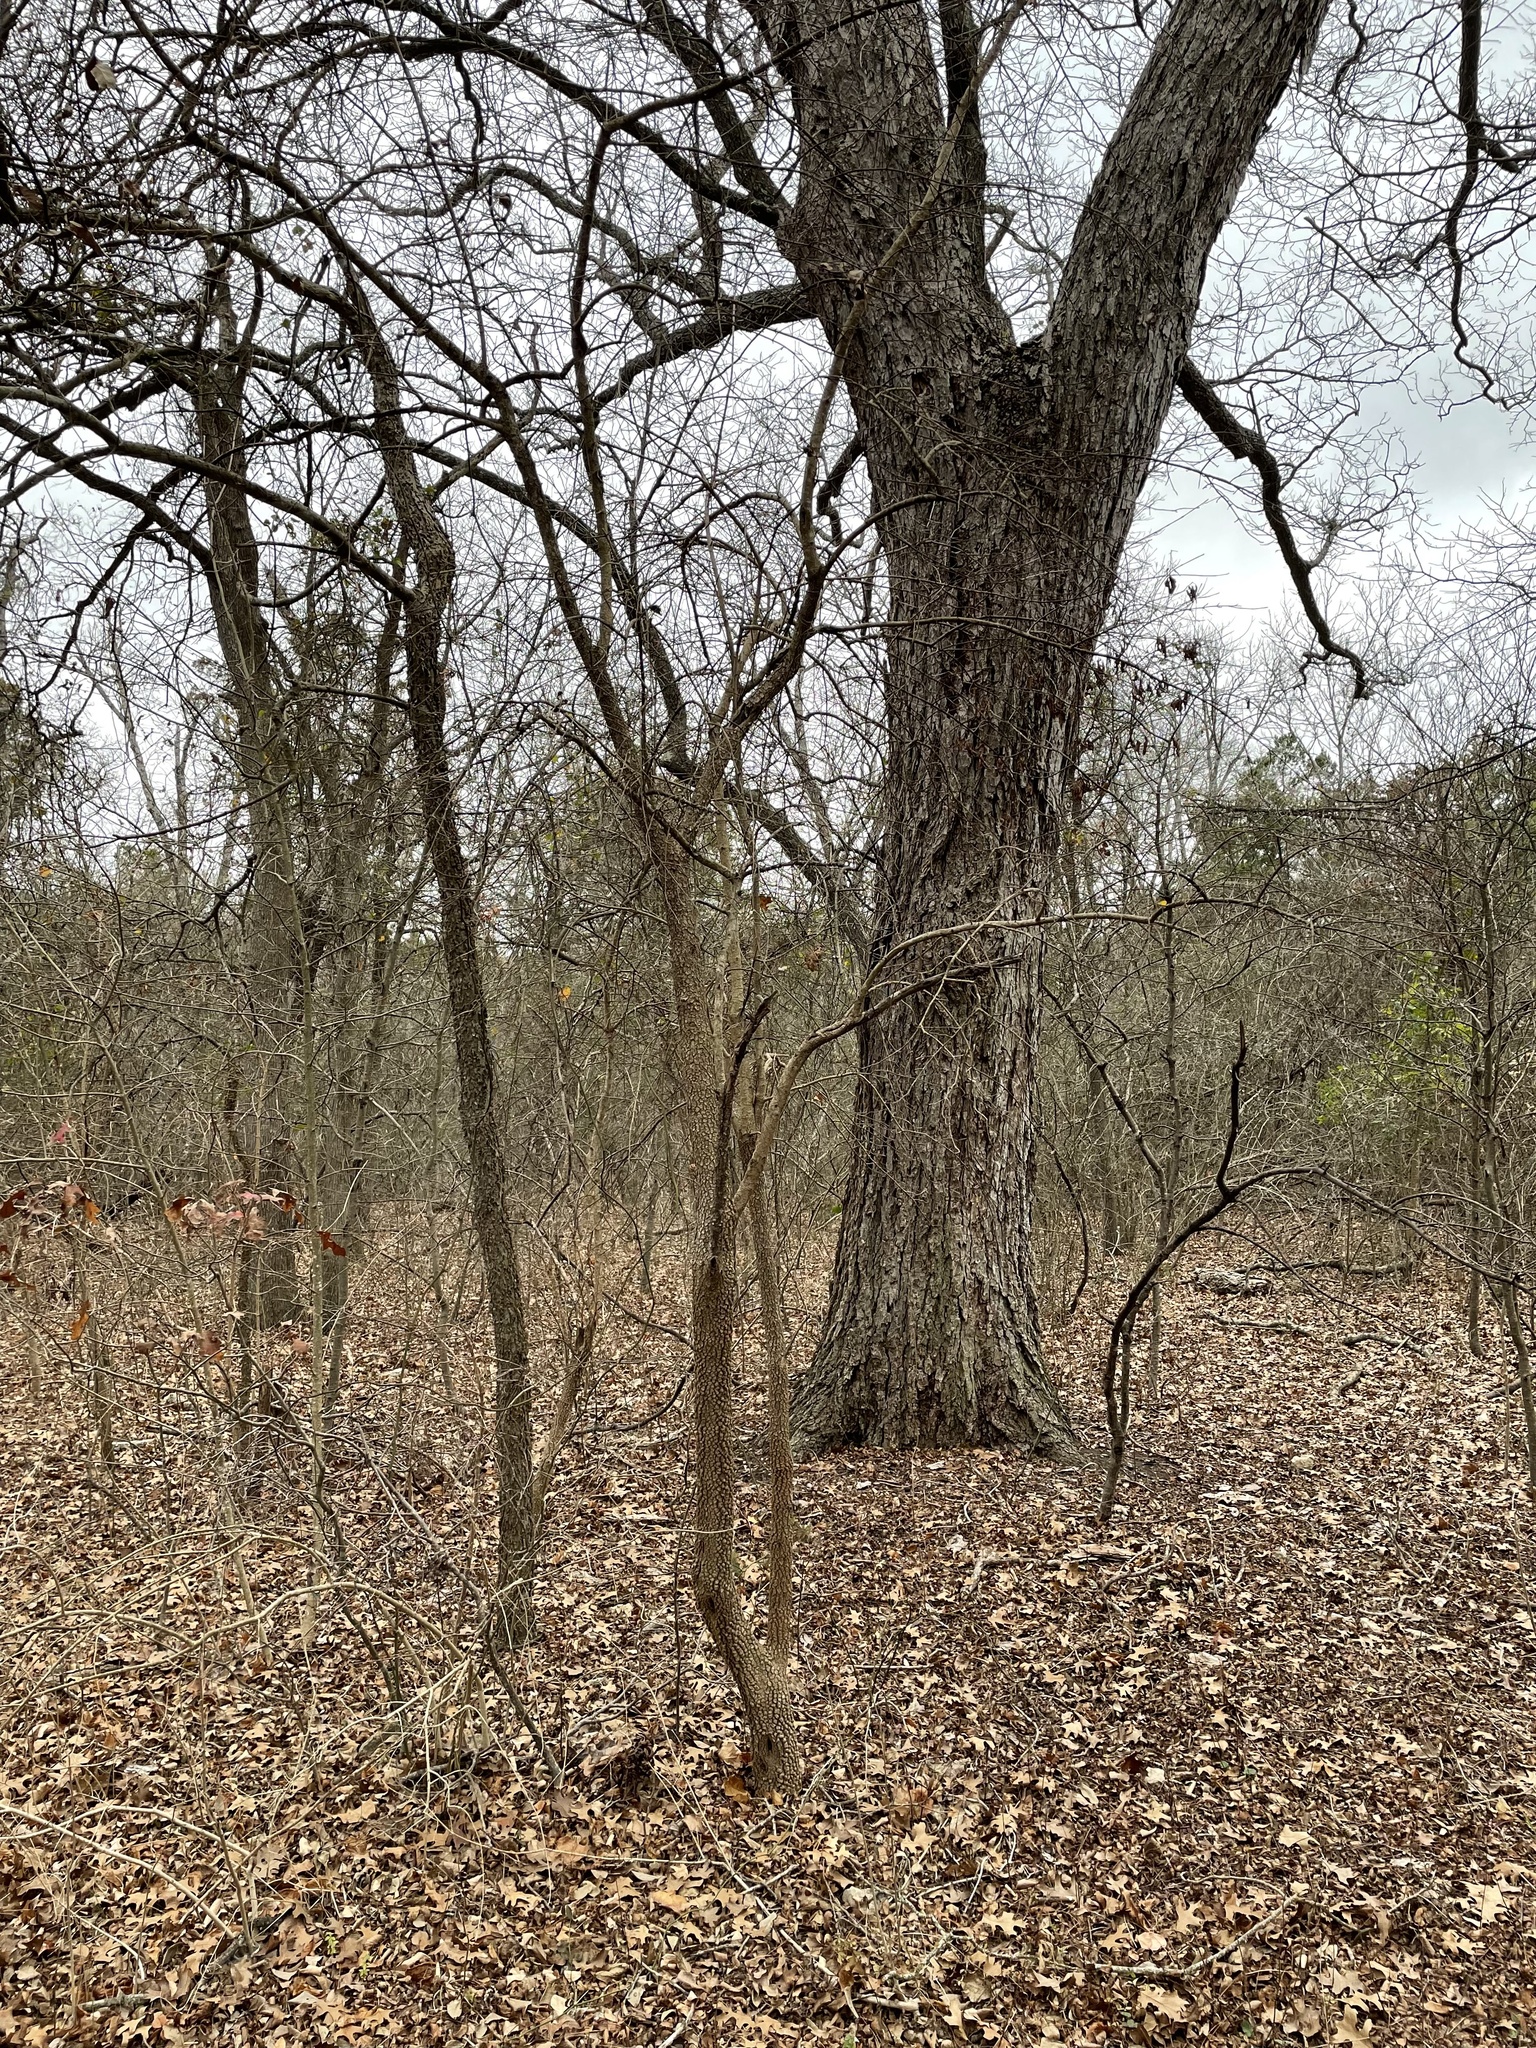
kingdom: Plantae
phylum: Tracheophyta
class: Magnoliopsida
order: Dipsacales
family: Viburnaceae
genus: Viburnum
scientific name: Viburnum rufidulum
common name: Blue haw
